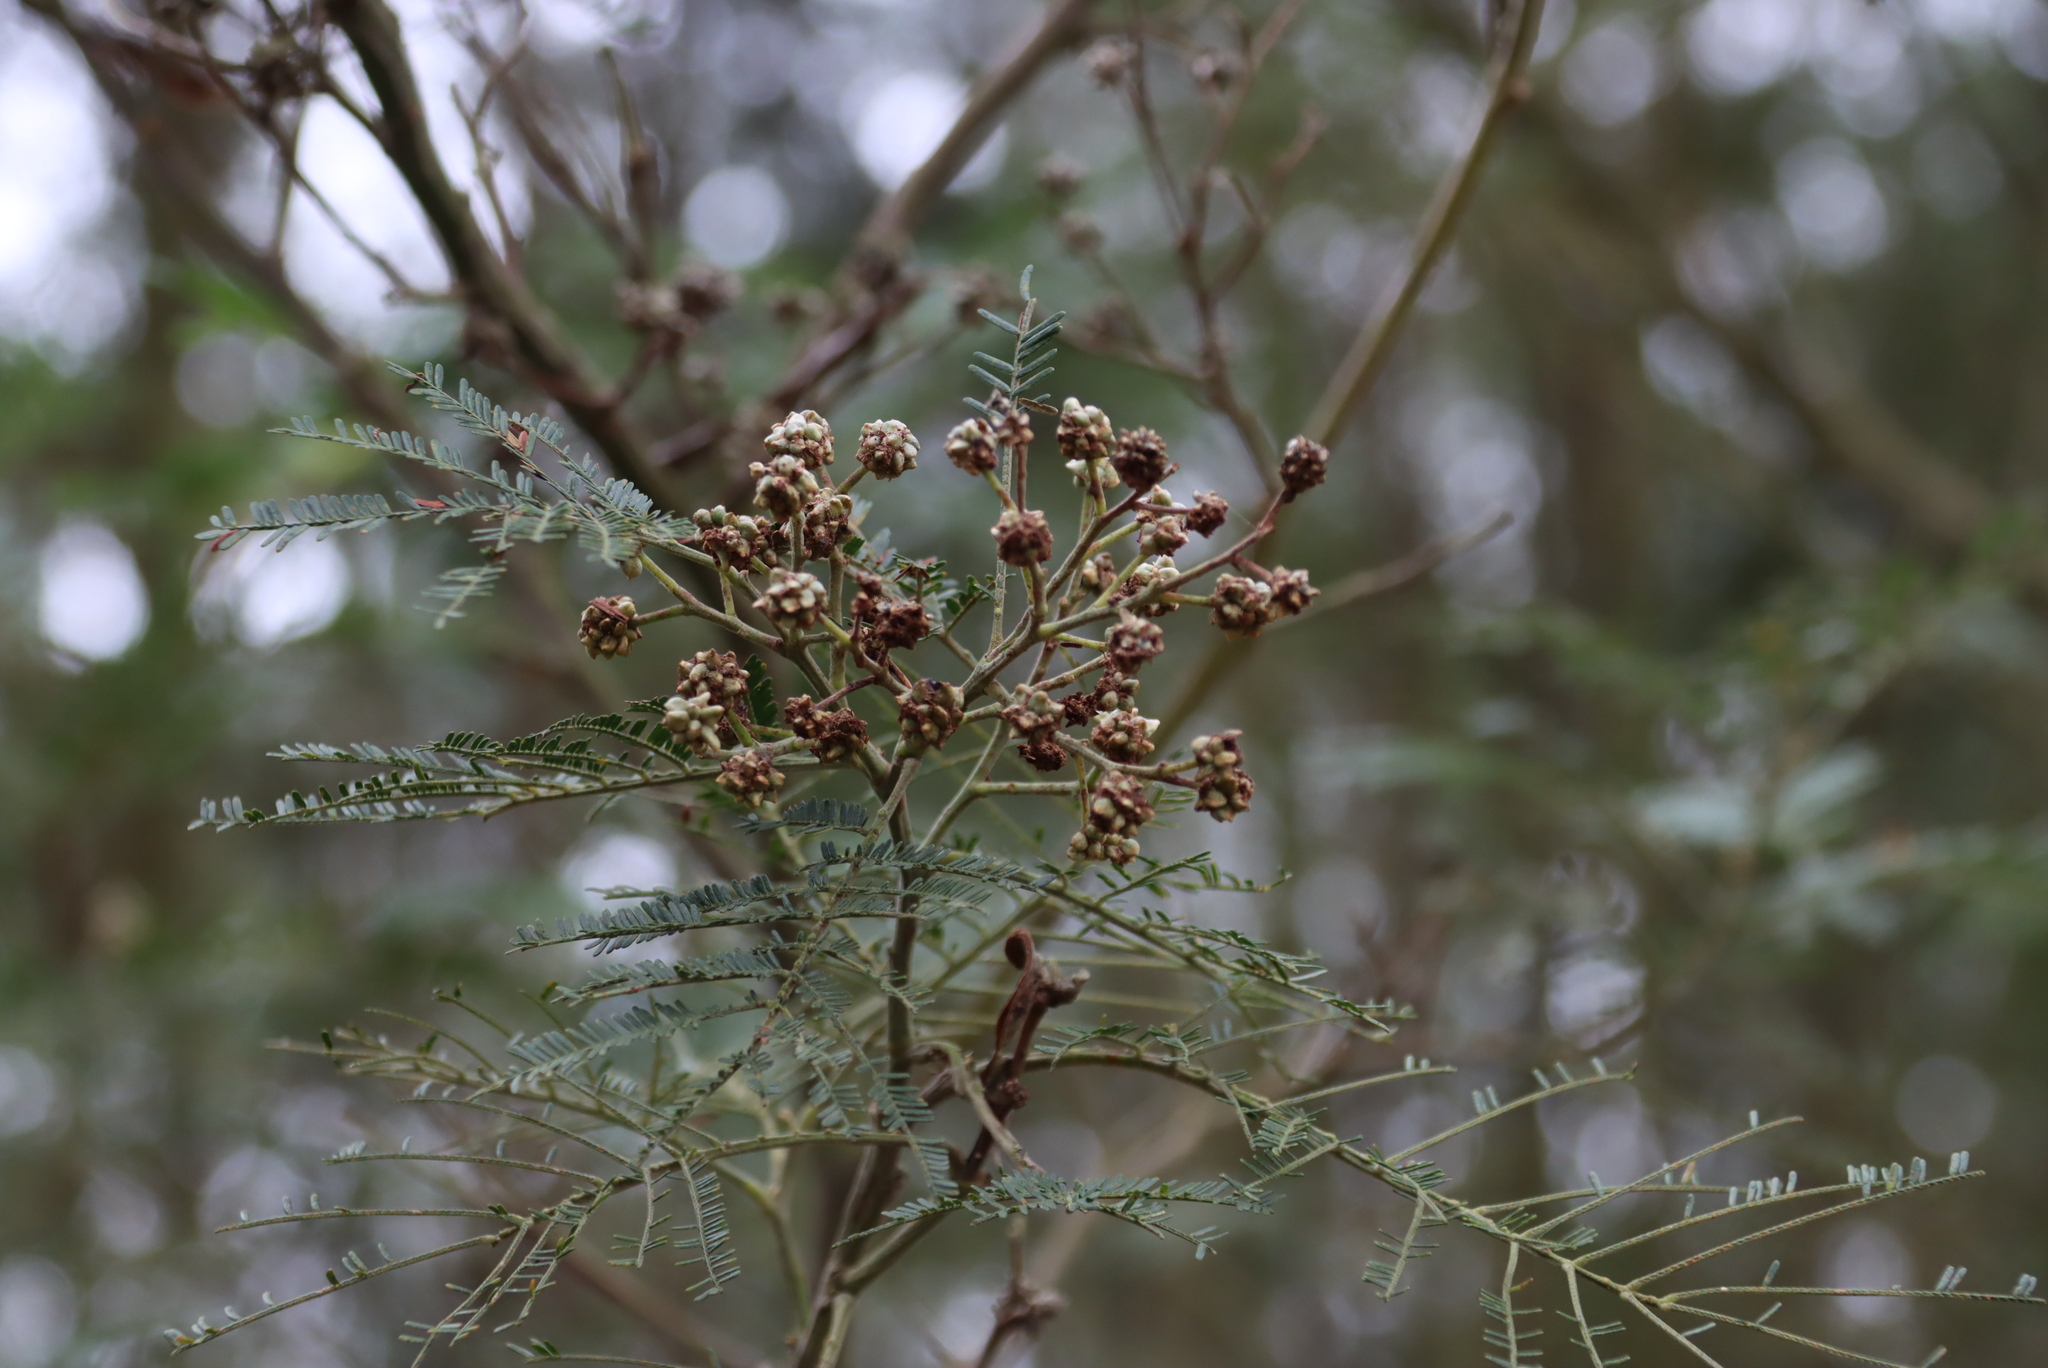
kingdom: Plantae
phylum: Tracheophyta
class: Magnoliopsida
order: Fabales
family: Fabaceae
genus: Acacia
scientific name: Acacia mearnsii
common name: Black wattle
